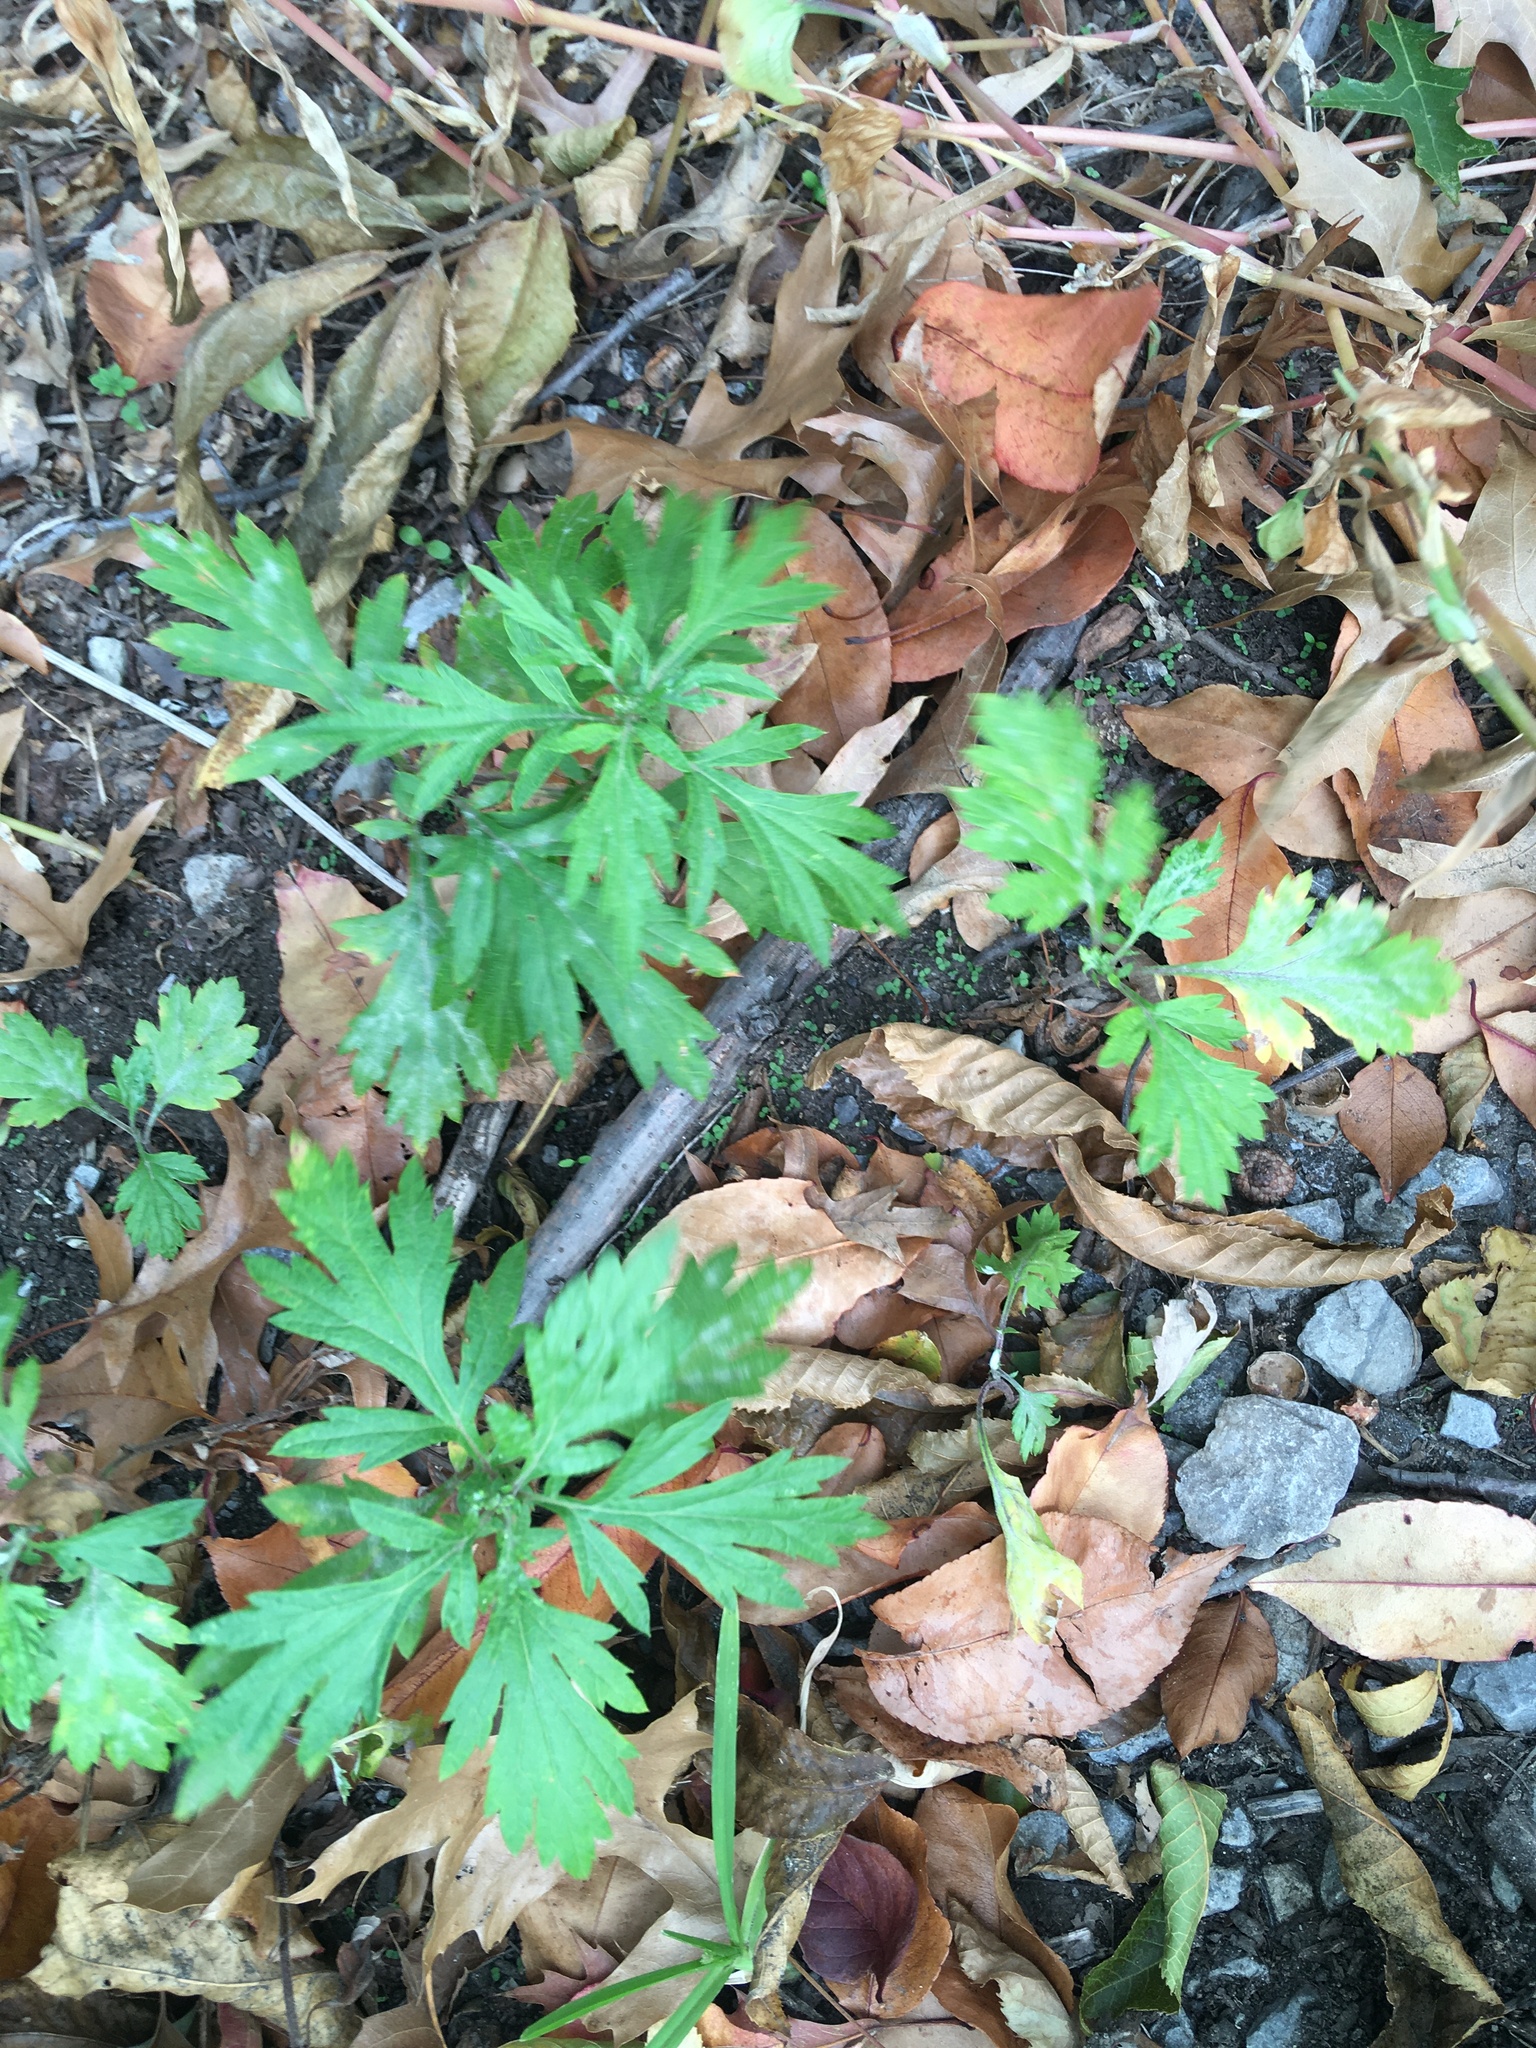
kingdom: Plantae
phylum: Tracheophyta
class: Magnoliopsida
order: Asterales
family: Asteraceae
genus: Artemisia
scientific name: Artemisia vulgaris
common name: Mugwort
